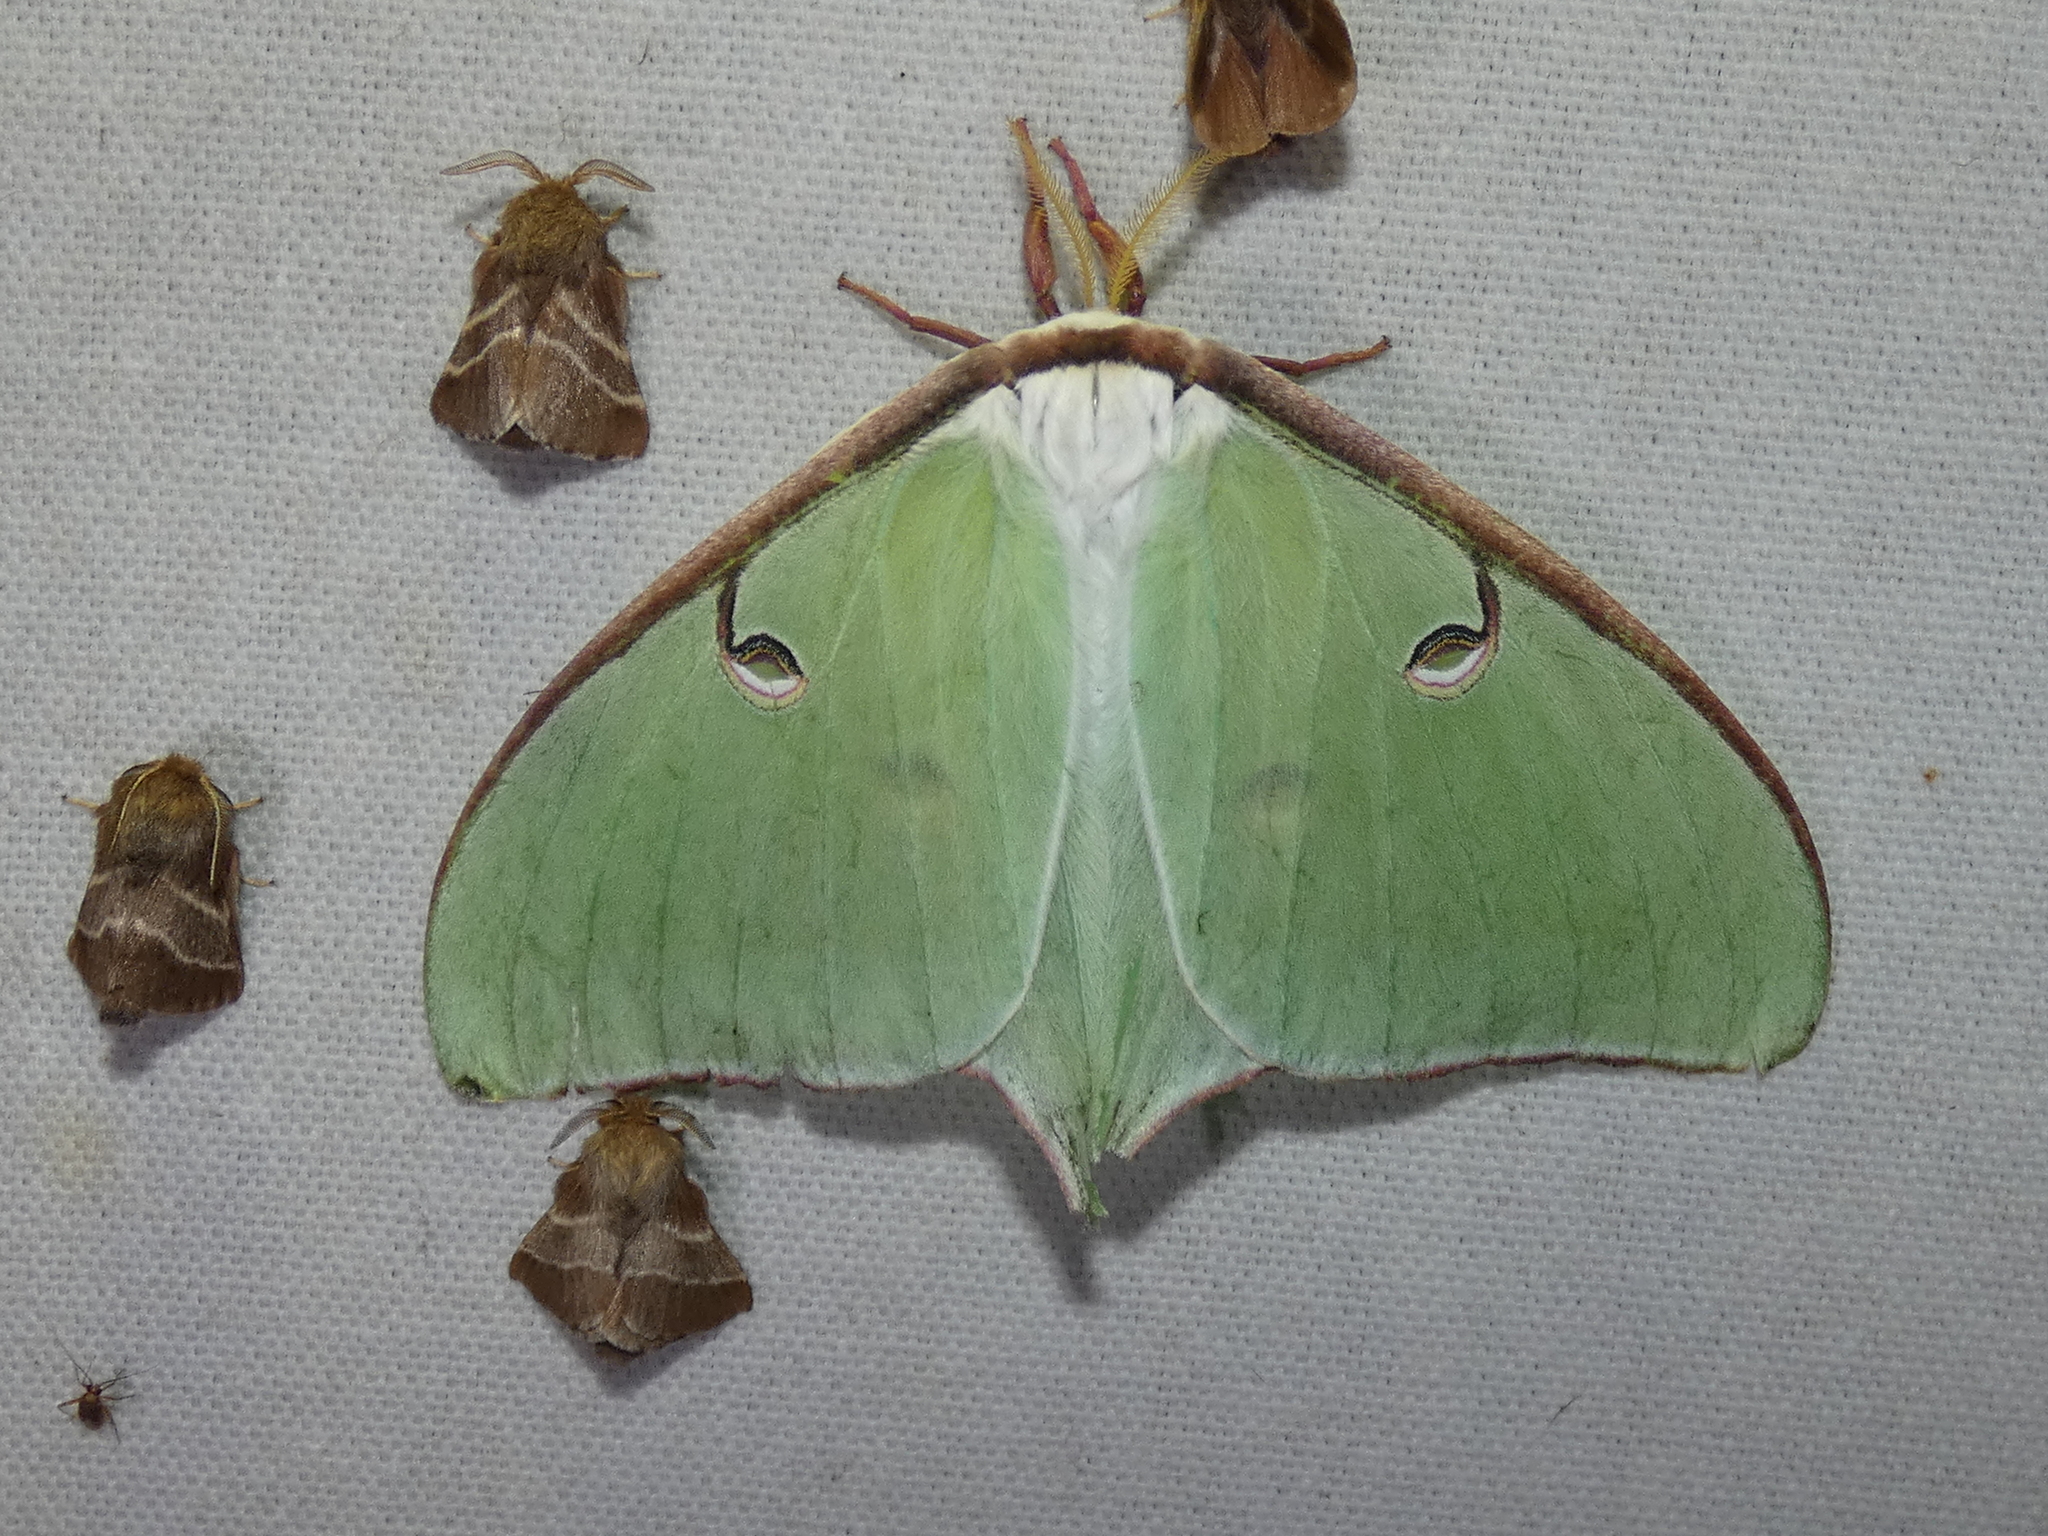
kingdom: Animalia
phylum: Arthropoda
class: Insecta
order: Lepidoptera
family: Saturniidae
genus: Actias
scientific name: Actias luna
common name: Luna moth
